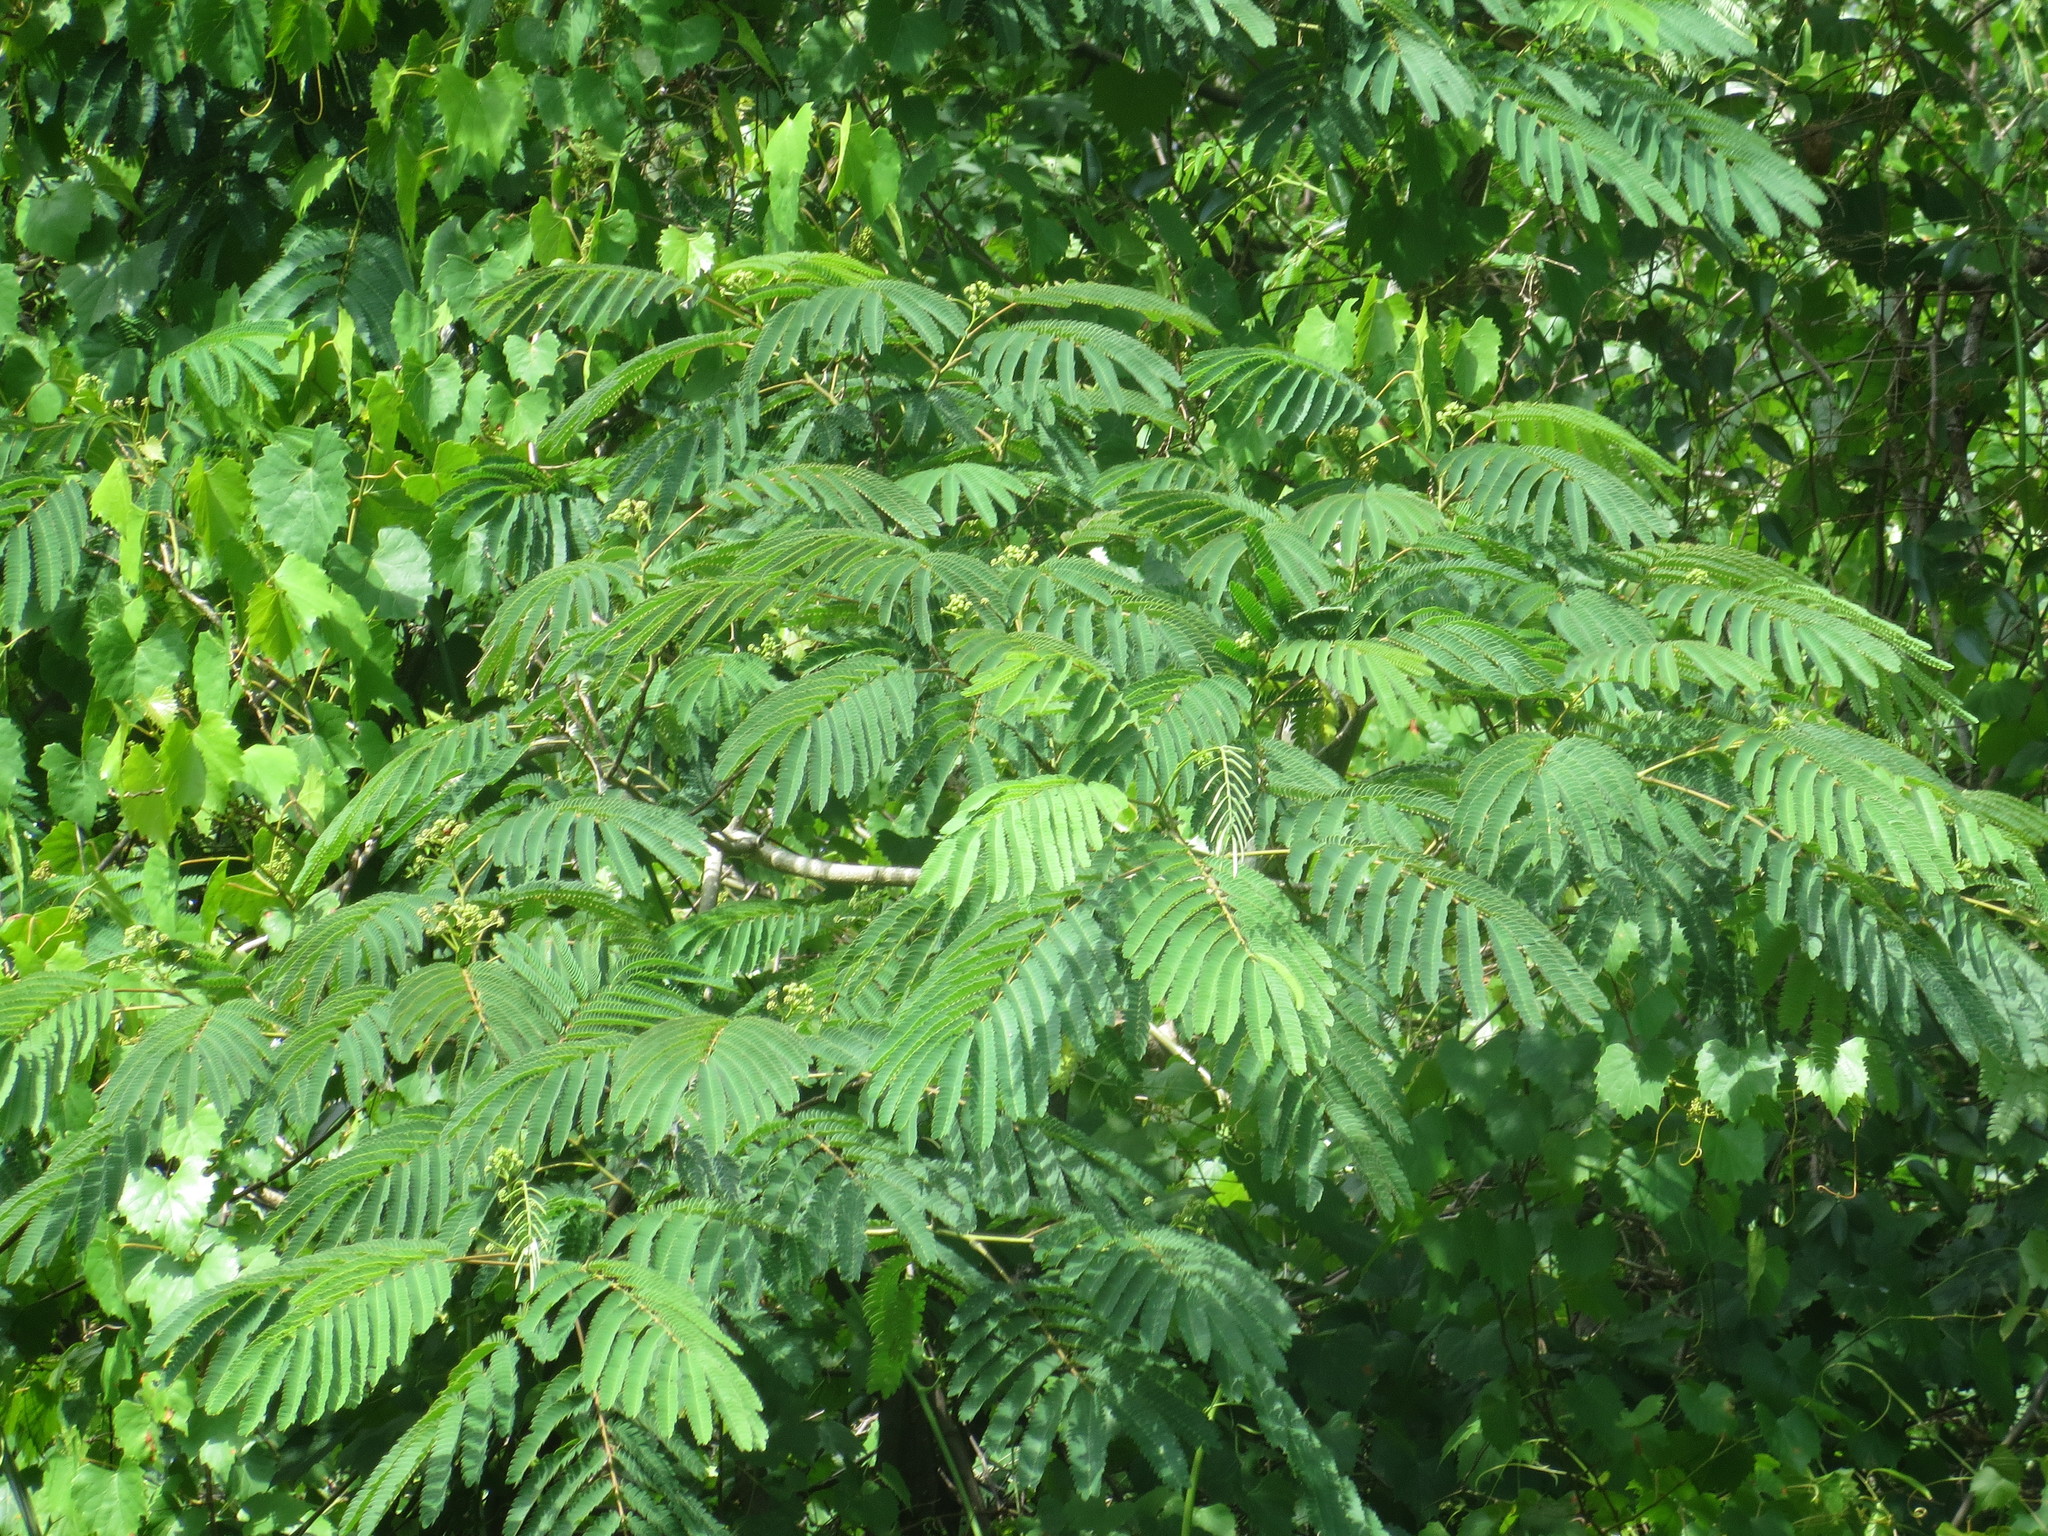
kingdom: Plantae
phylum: Tracheophyta
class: Magnoliopsida
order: Fabales
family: Fabaceae
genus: Albizia
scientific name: Albizia julibrissin
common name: Silktree
